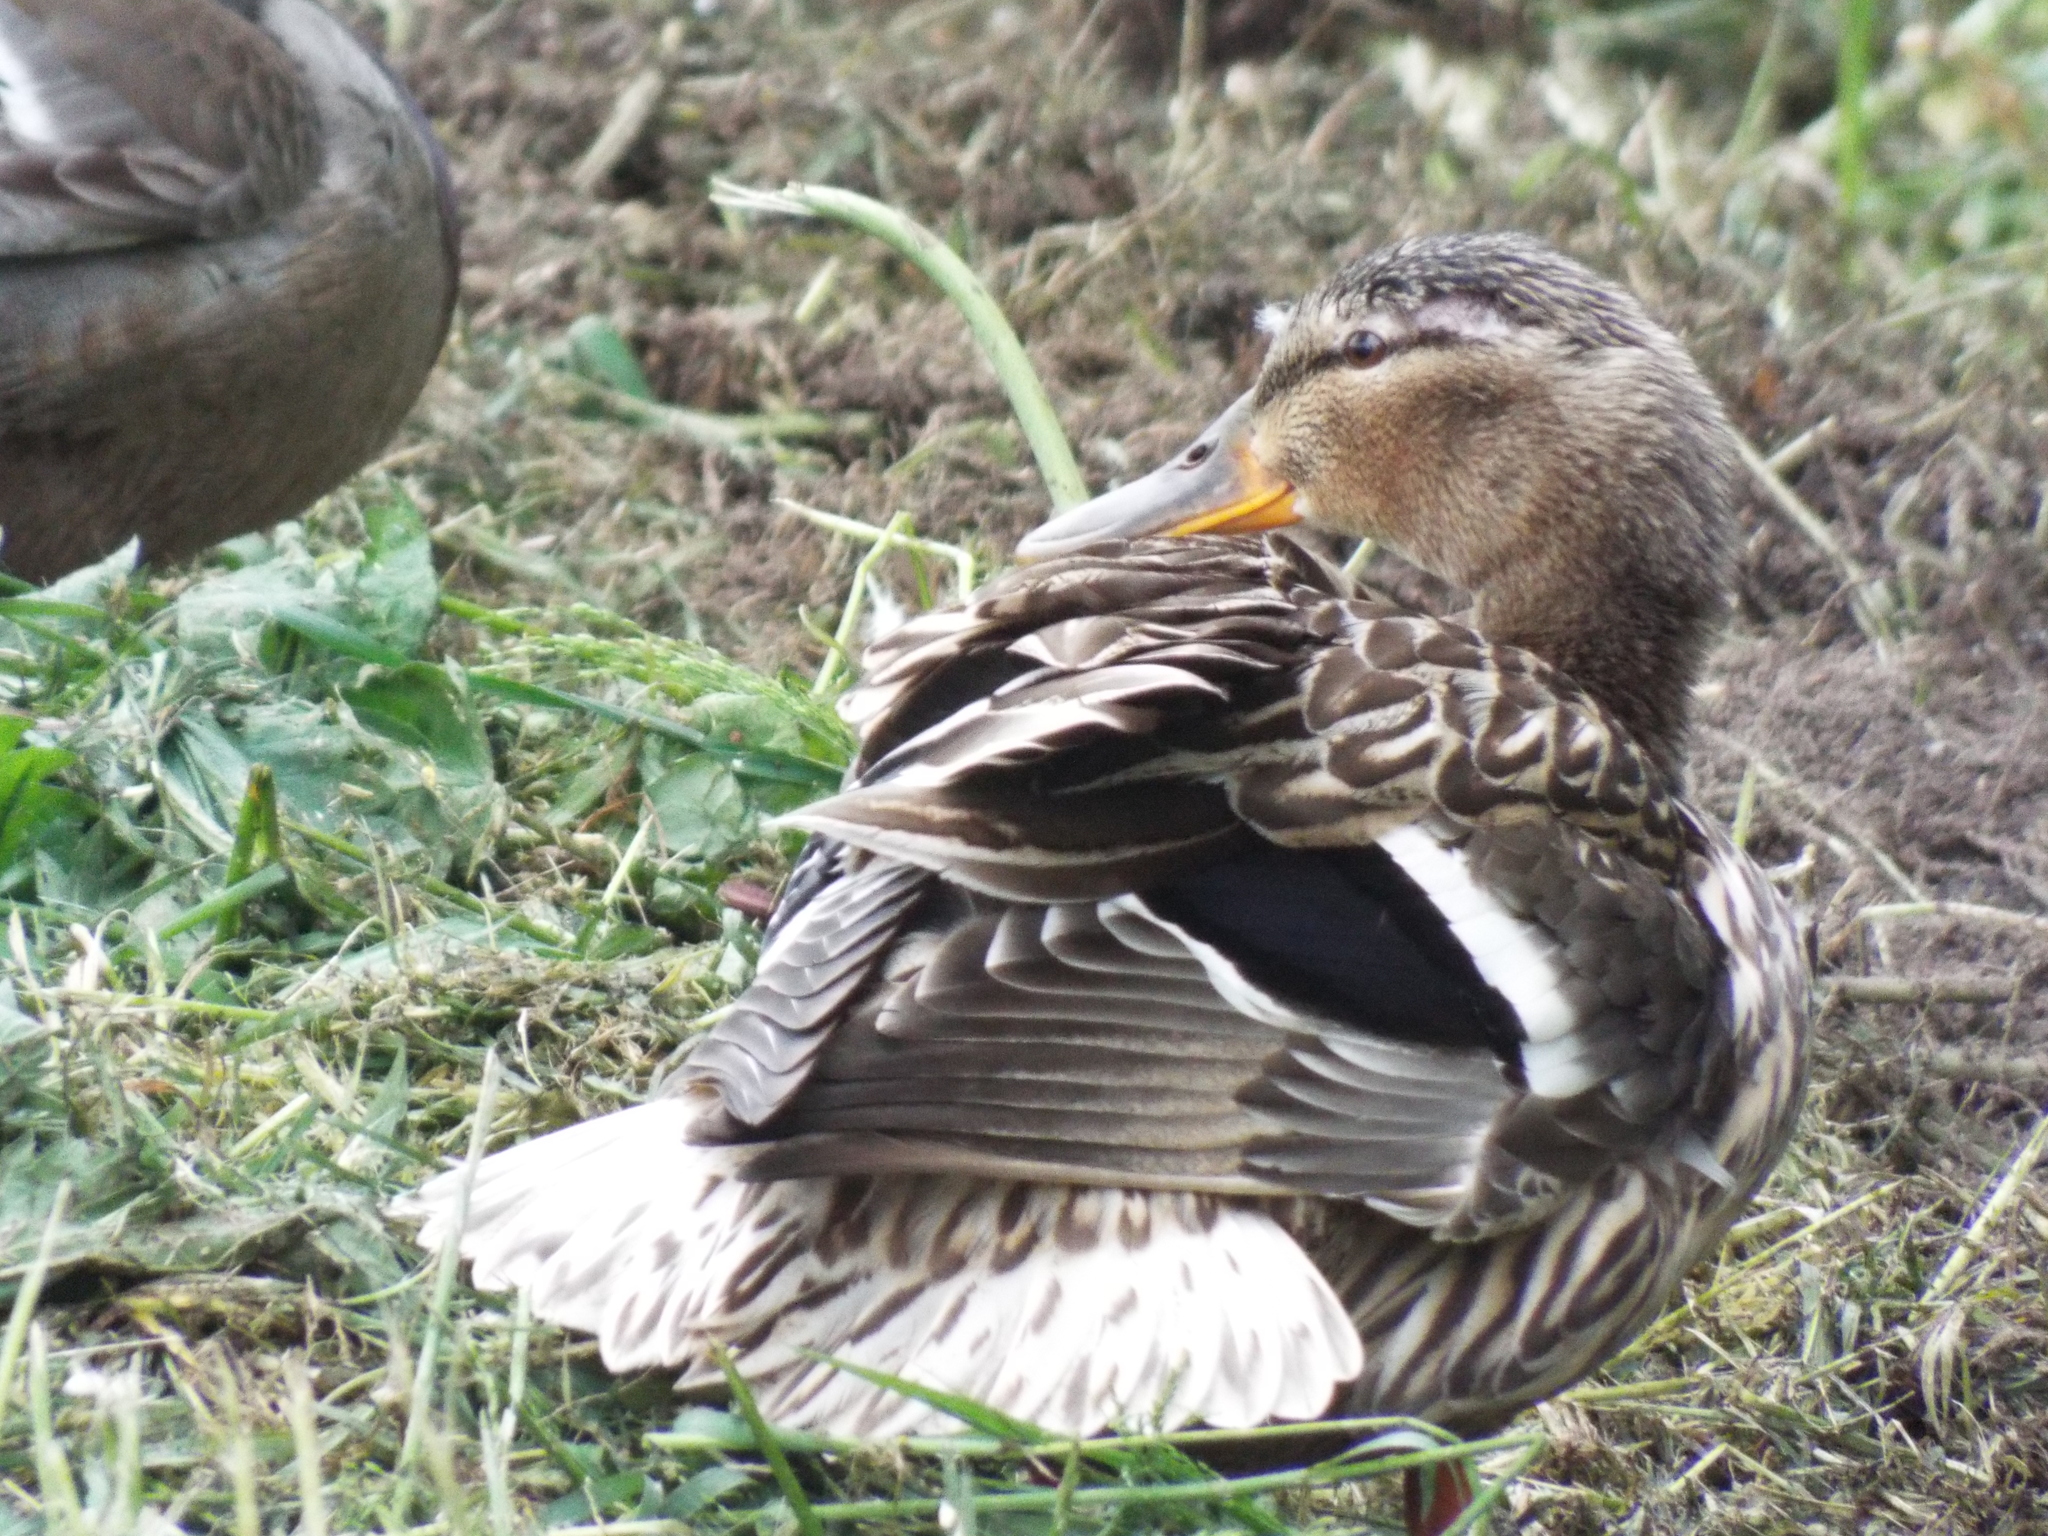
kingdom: Animalia
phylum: Chordata
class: Aves
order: Anseriformes
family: Anatidae
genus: Anas
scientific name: Anas platyrhynchos
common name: Mallard
